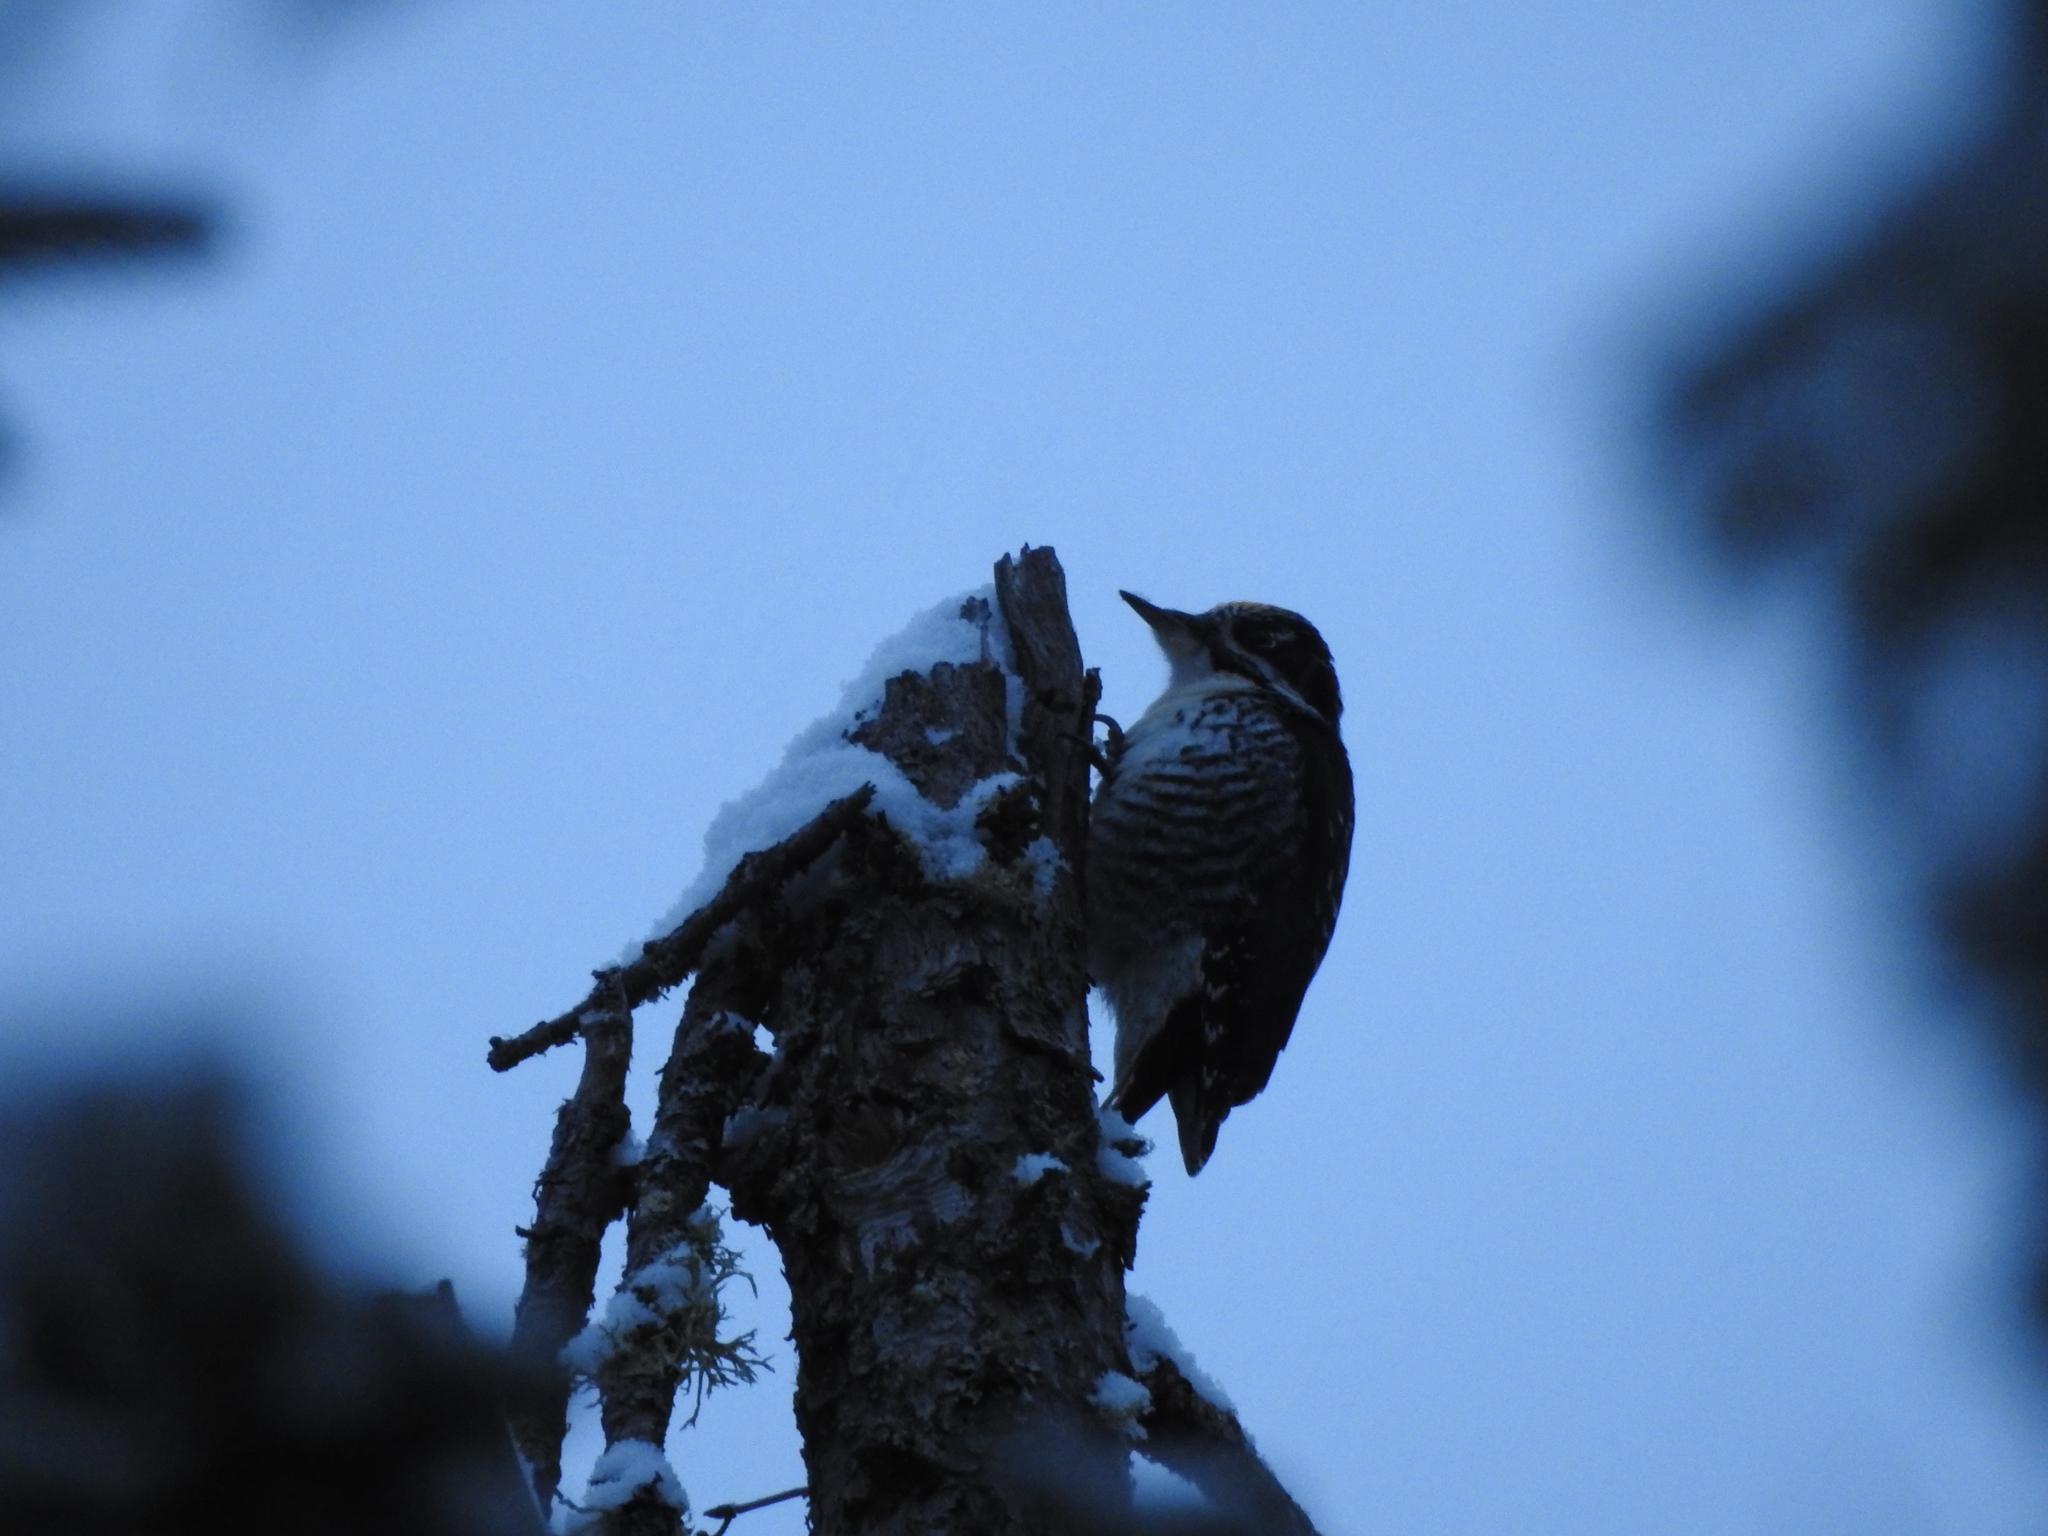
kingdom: Animalia
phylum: Chordata
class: Aves
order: Piciformes
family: Picidae
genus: Picoides
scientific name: Picoides dorsalis
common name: American three-toed woodpecker
